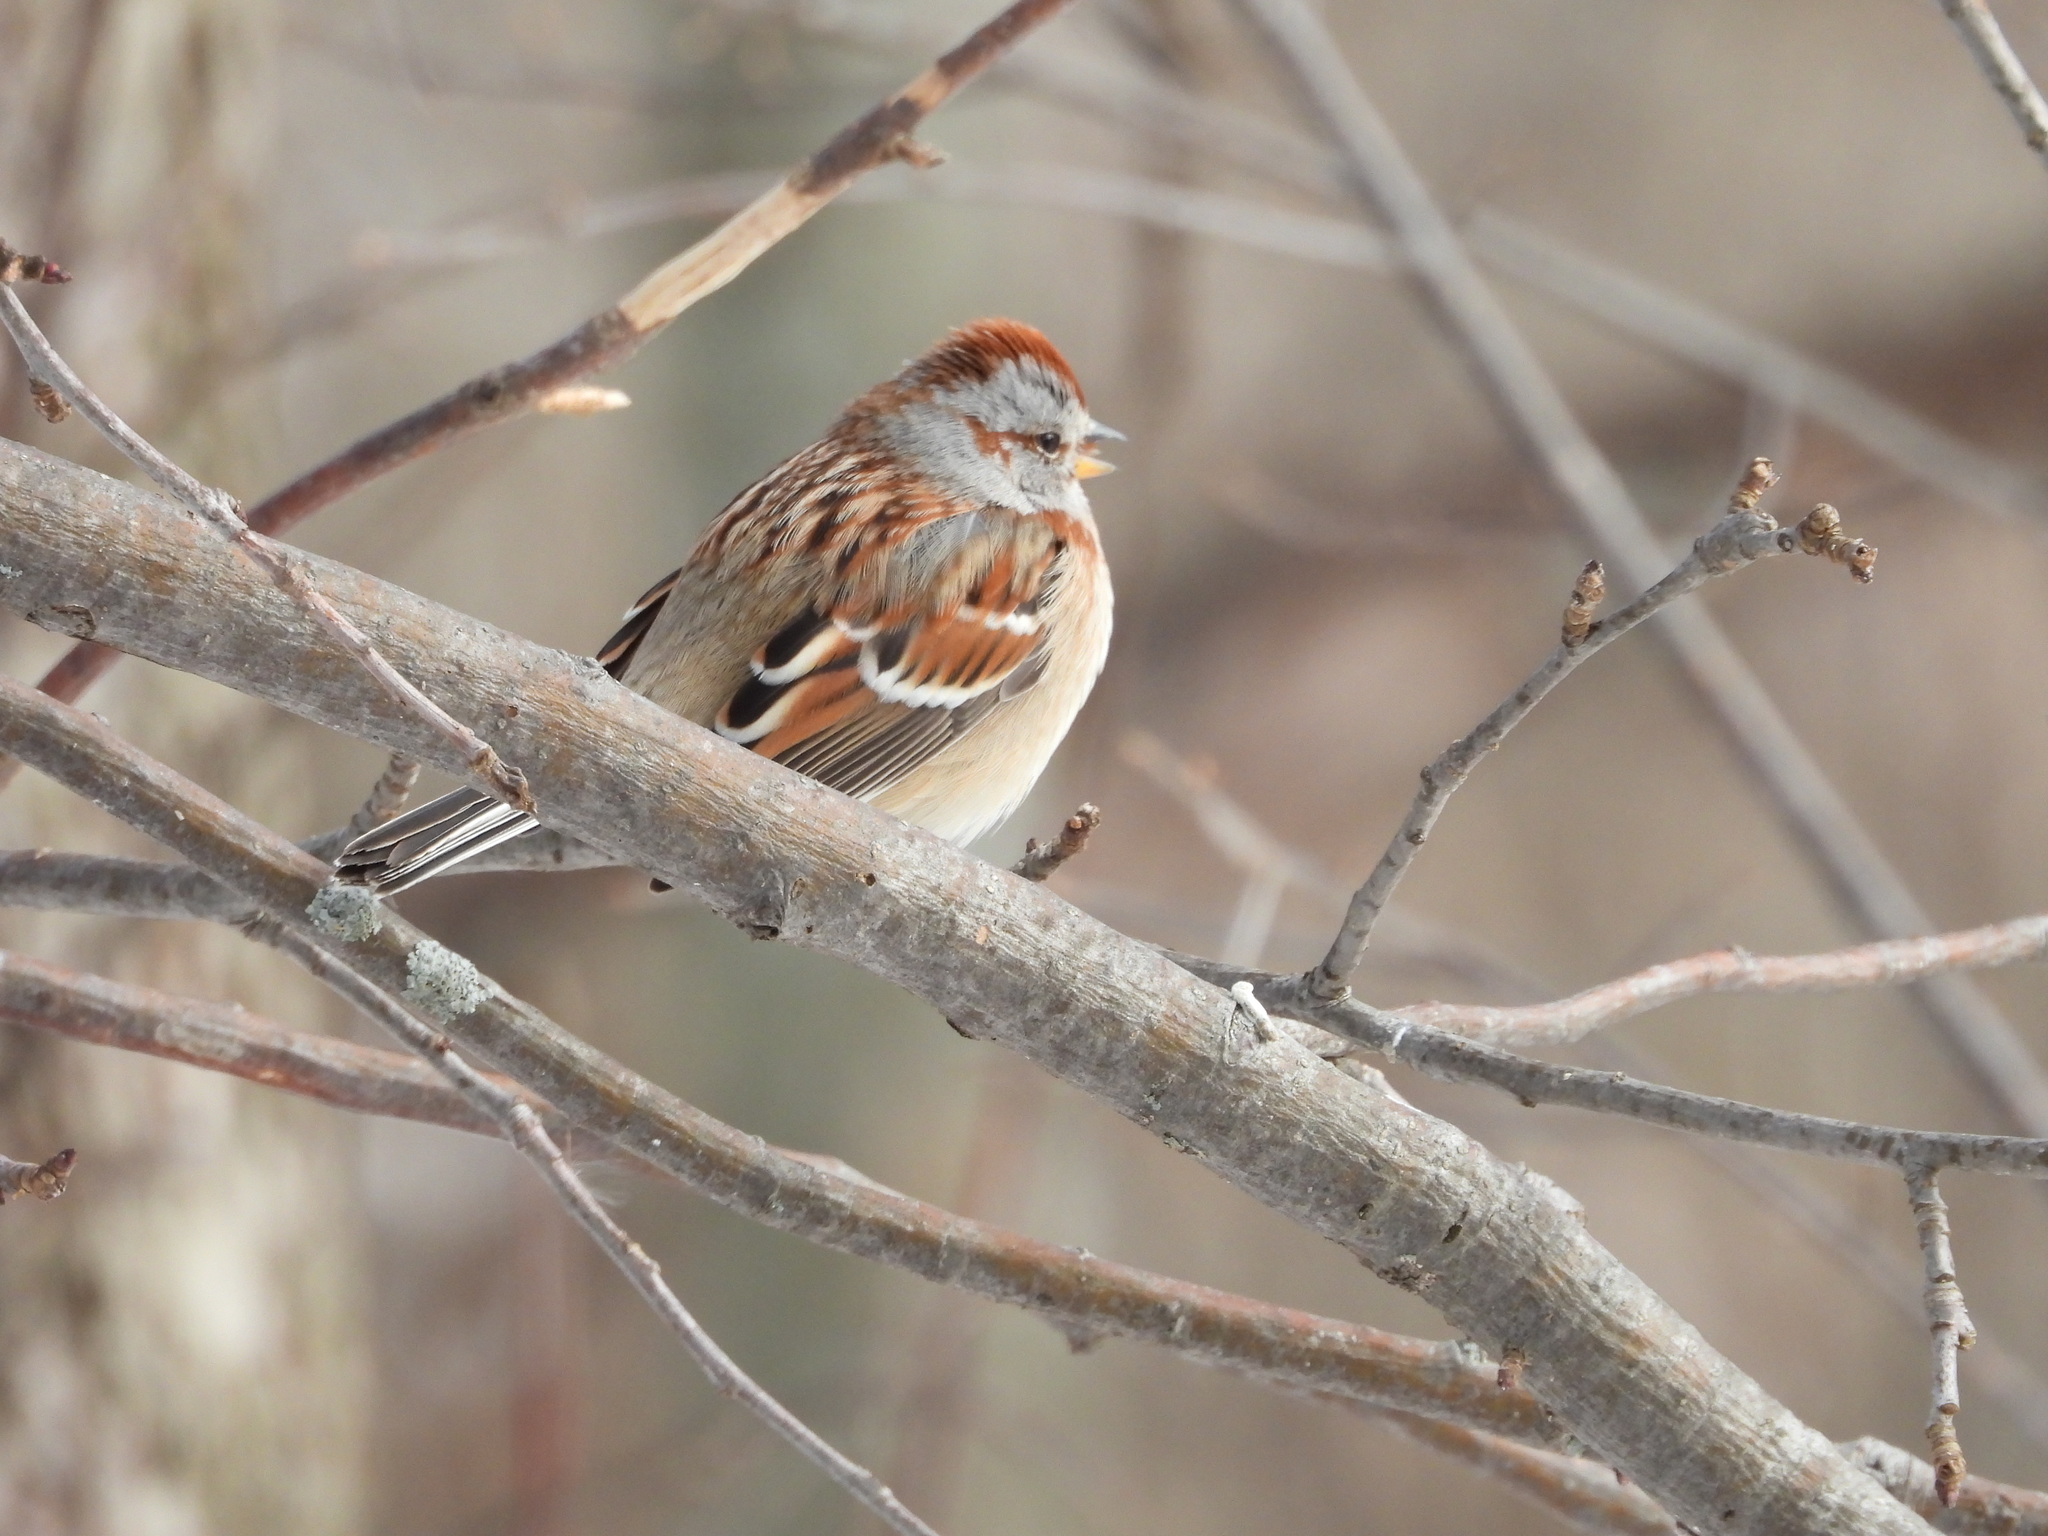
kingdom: Animalia
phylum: Chordata
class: Aves
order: Passeriformes
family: Passerellidae
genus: Spizelloides
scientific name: Spizelloides arborea
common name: American tree sparrow
